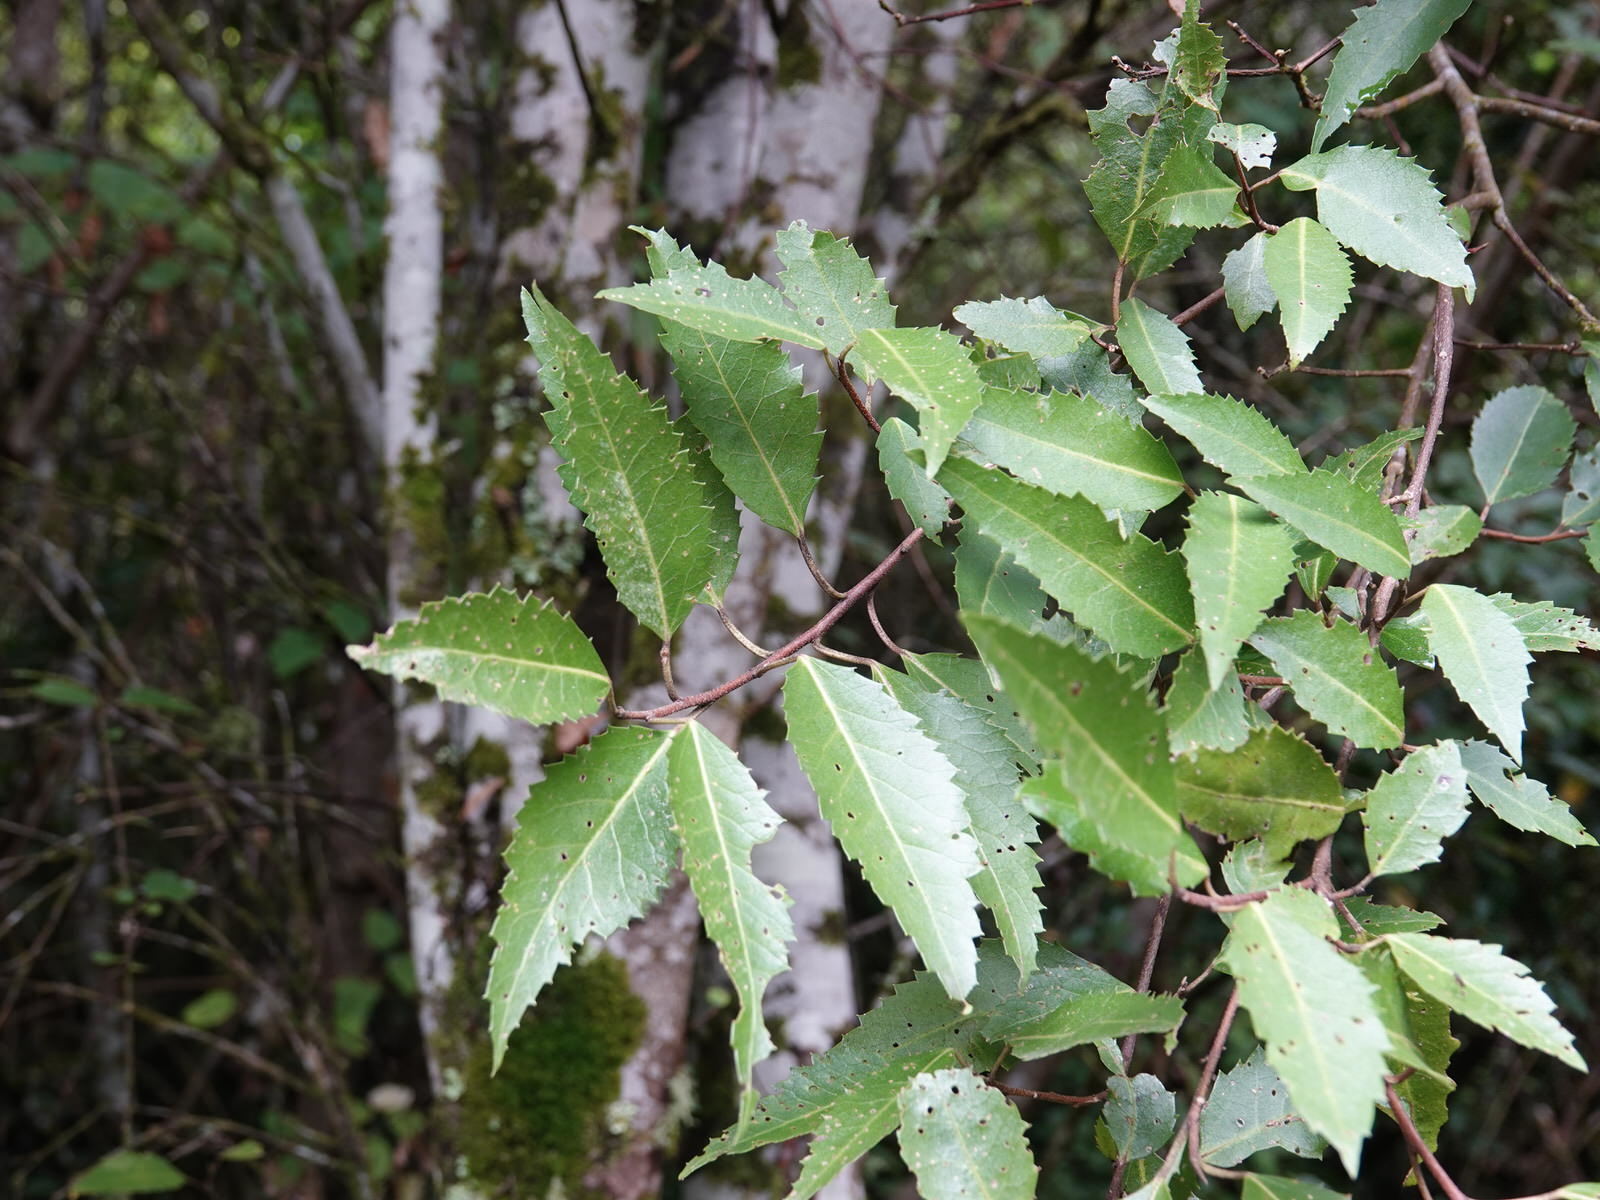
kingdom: Plantae
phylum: Tracheophyta
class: Magnoliopsida
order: Malvales
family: Malvaceae
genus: Hoheria
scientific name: Hoheria populnea
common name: Lacebark
